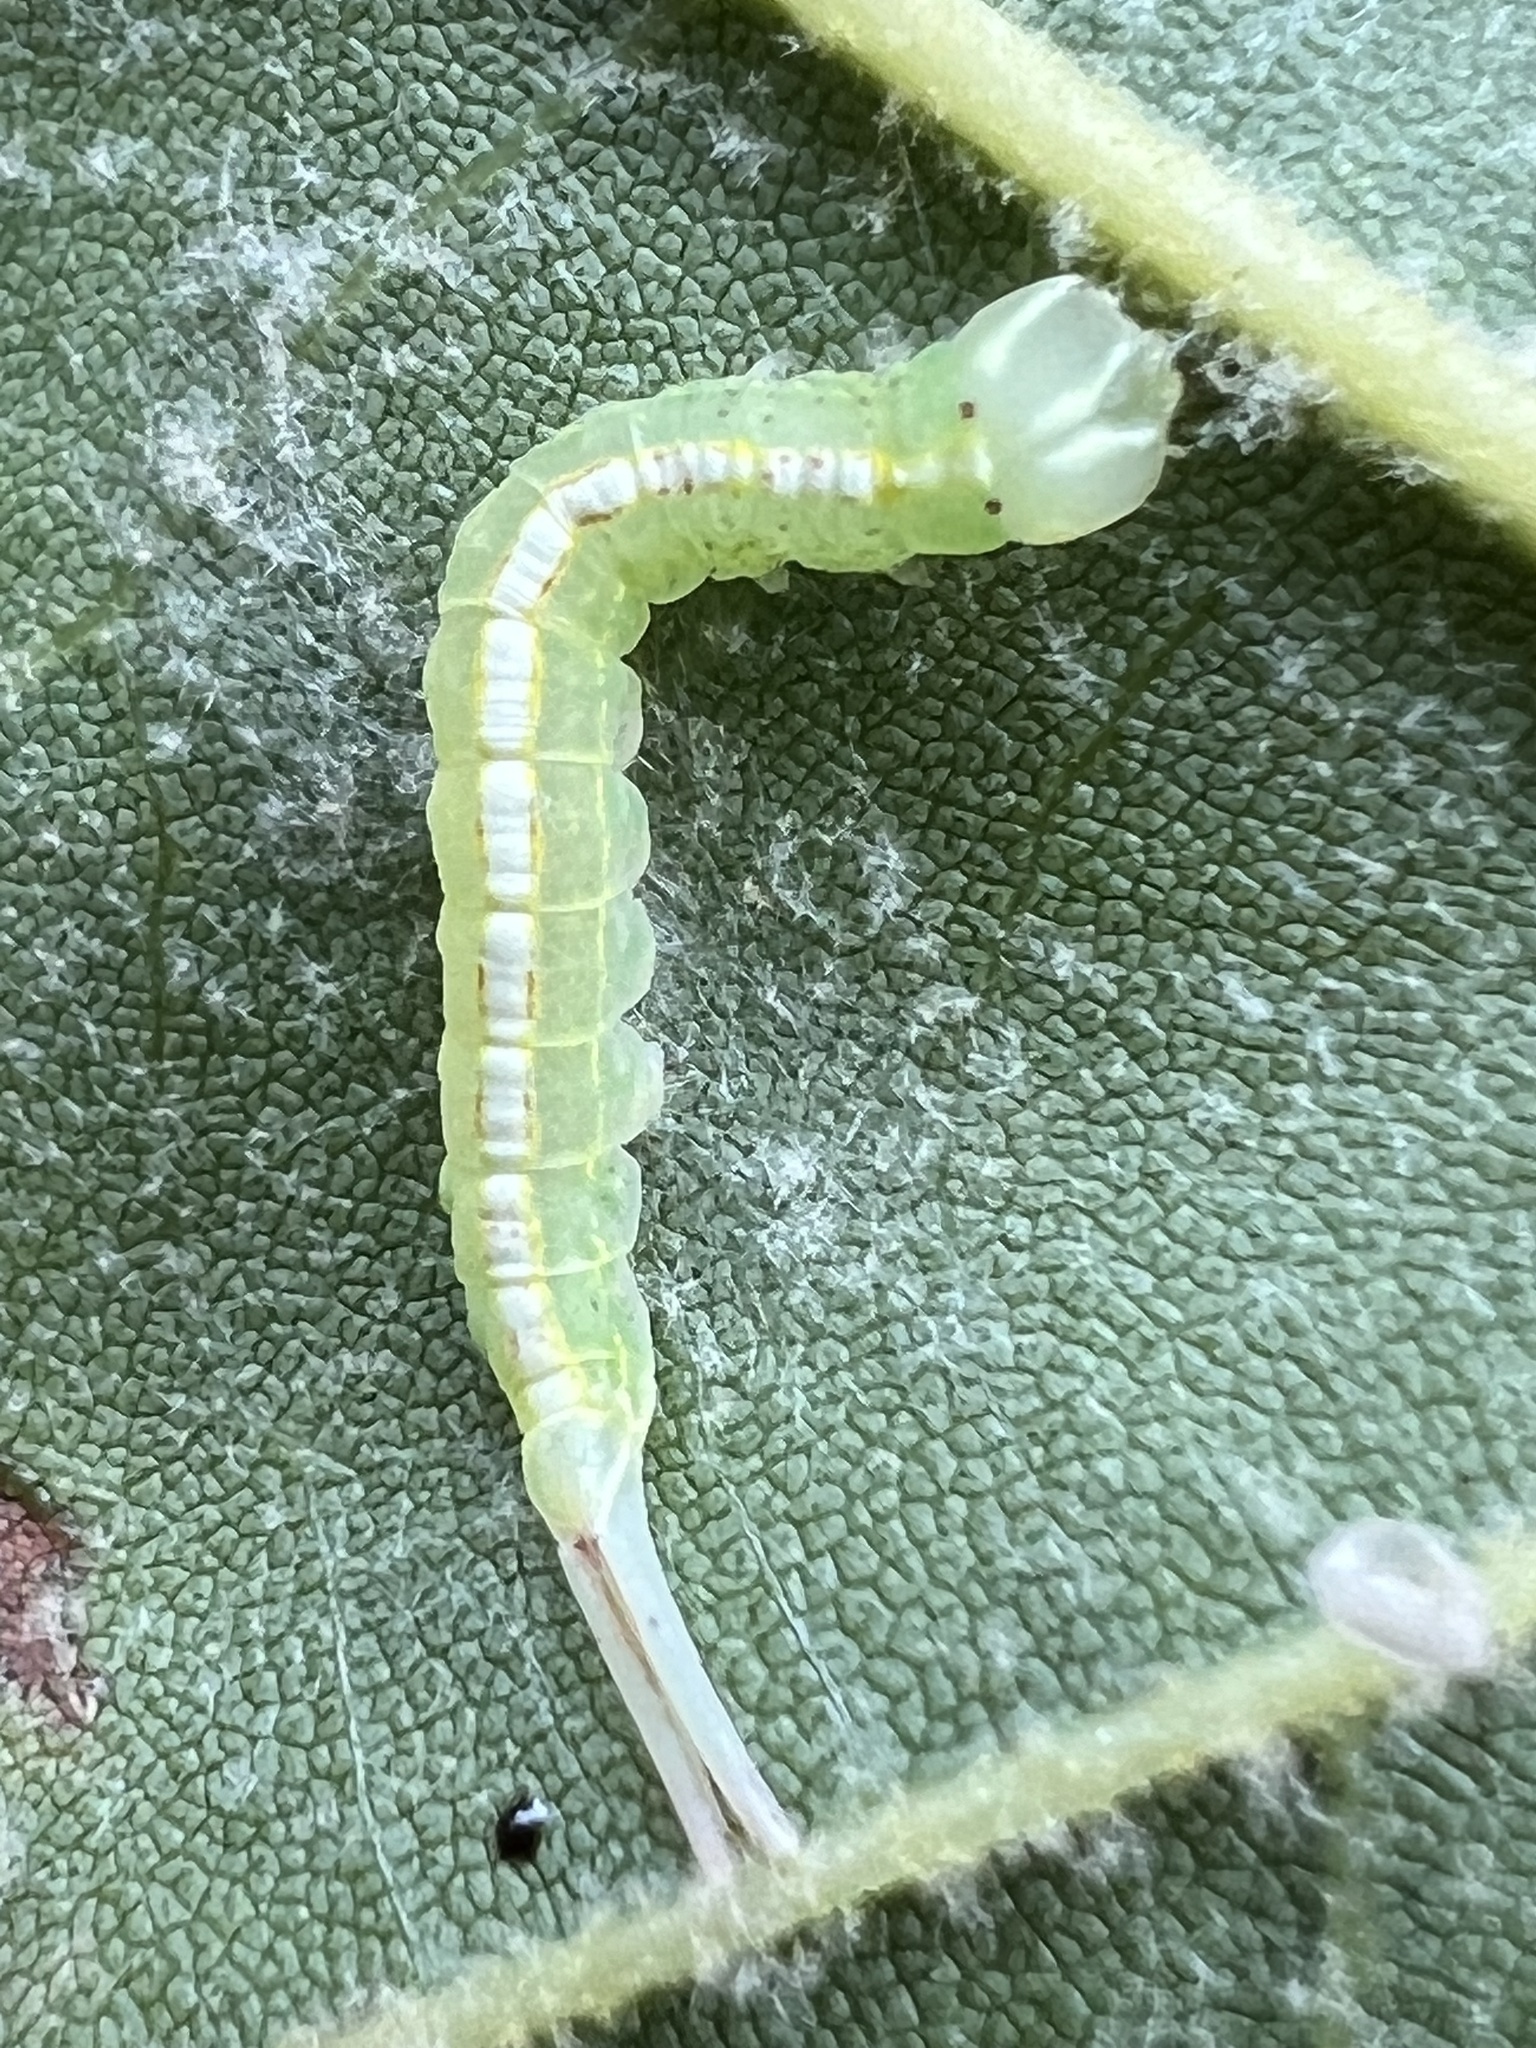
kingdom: Animalia
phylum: Arthropoda
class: Insecta
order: Lepidoptera
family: Notodontidae
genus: Misogada
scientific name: Misogada unicolor
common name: Drab prominent
